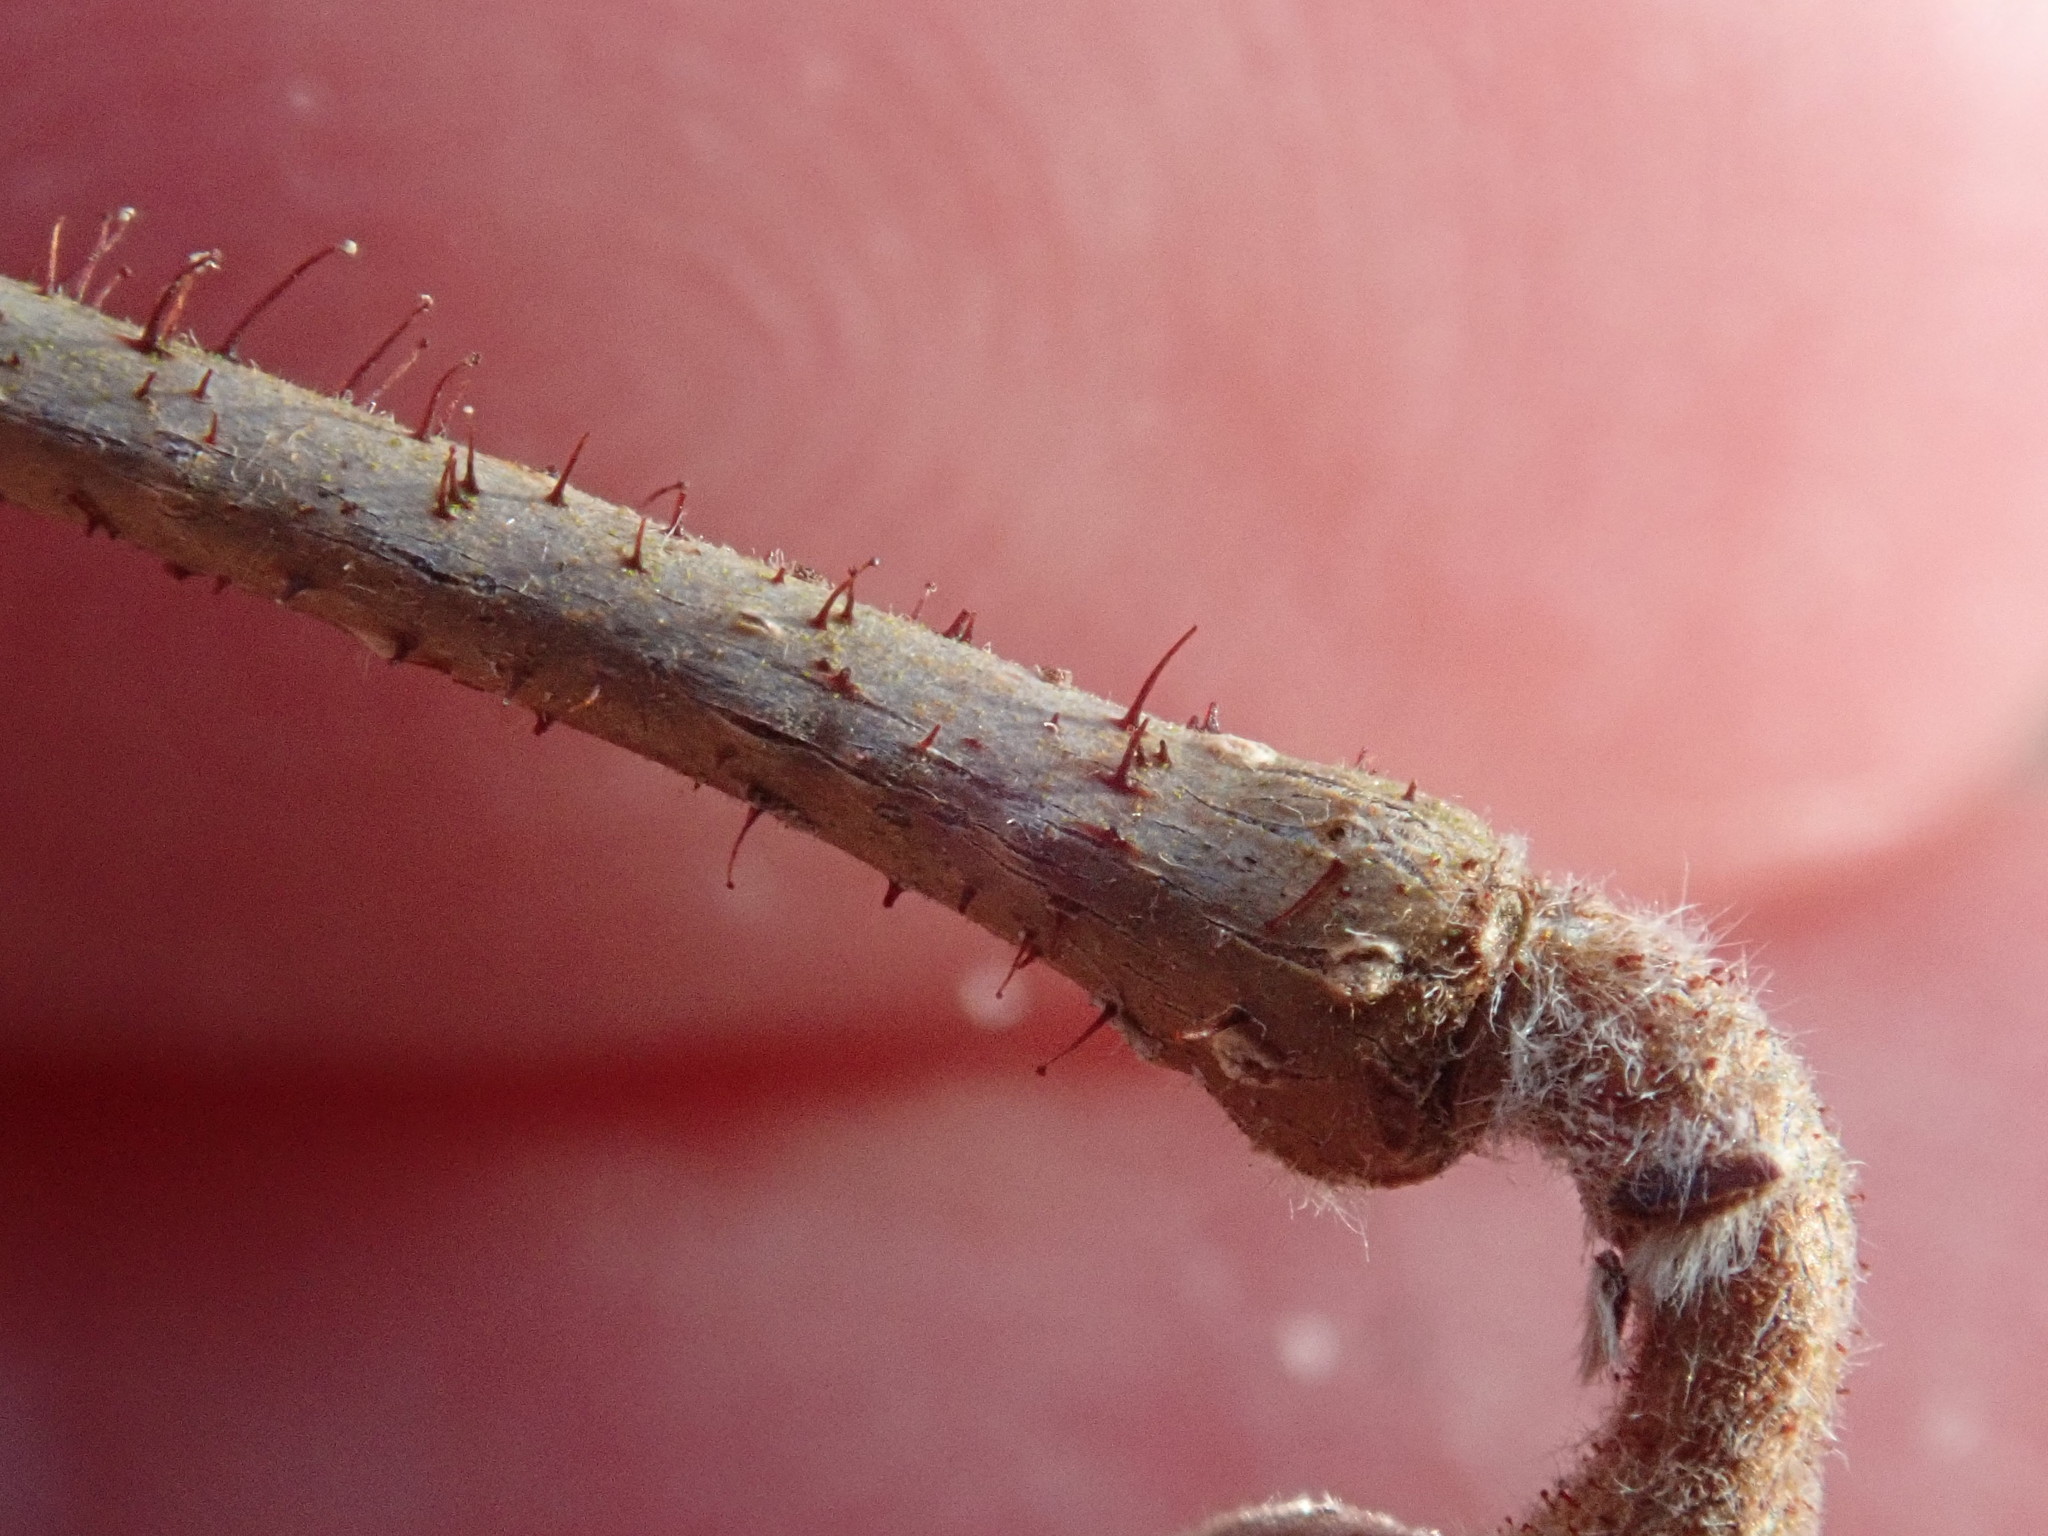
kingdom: Plantae
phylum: Tracheophyta
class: Magnoliopsida
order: Fagales
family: Betulaceae
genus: Corylus
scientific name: Corylus americana
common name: American hazel
